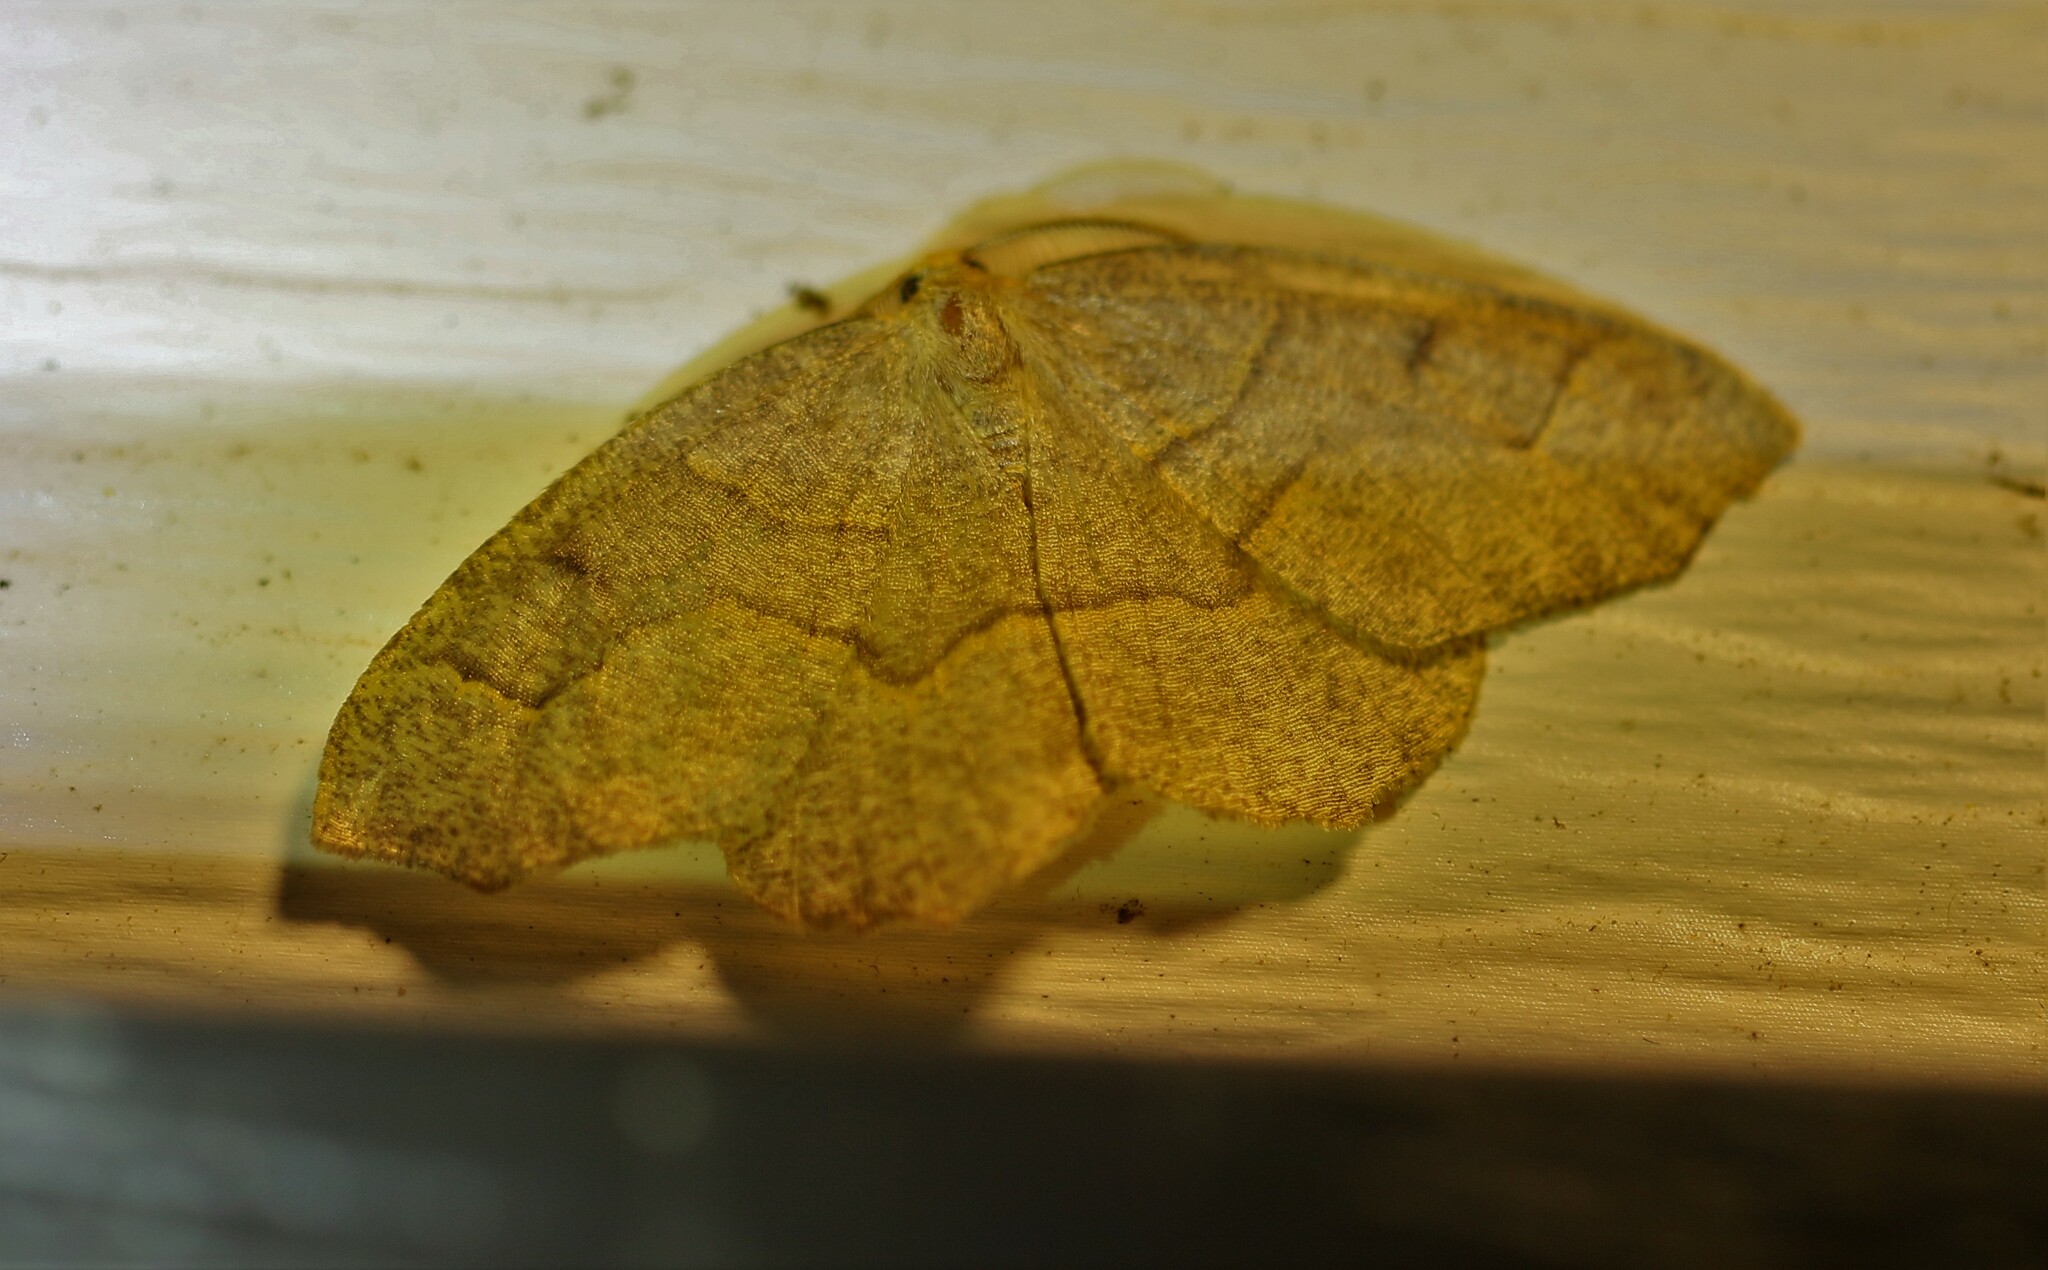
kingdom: Animalia
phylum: Arthropoda
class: Insecta
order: Lepidoptera
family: Geometridae
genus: Lambdina
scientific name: Lambdina fiscellaria
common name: Hemlock looper
